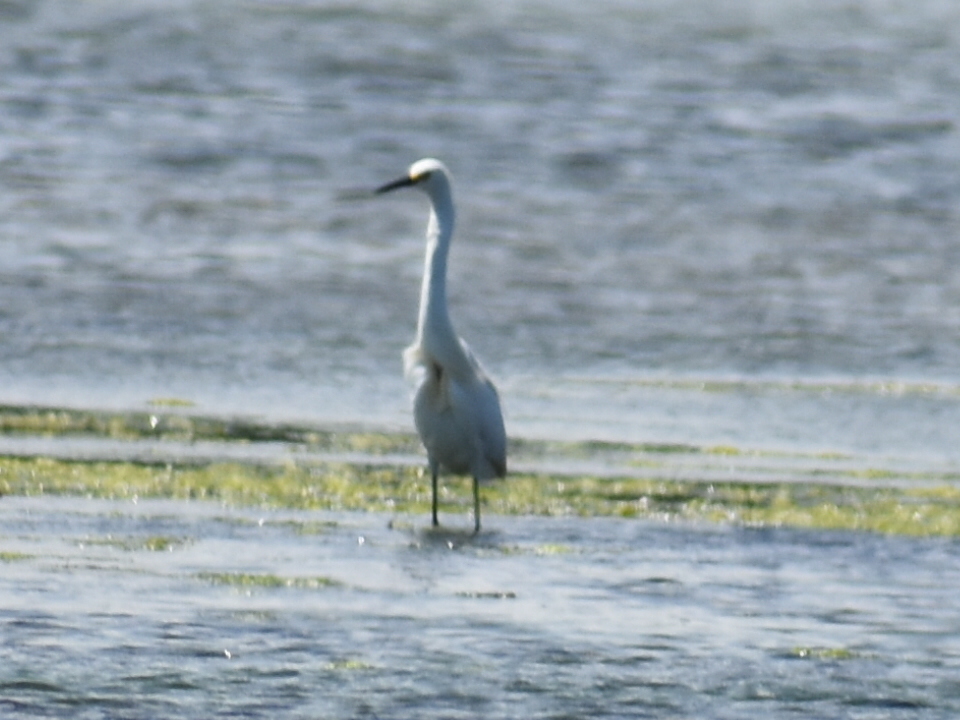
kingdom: Animalia
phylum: Chordata
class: Aves
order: Pelecaniformes
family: Ardeidae
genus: Egretta
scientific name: Egretta thula
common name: Snowy egret
